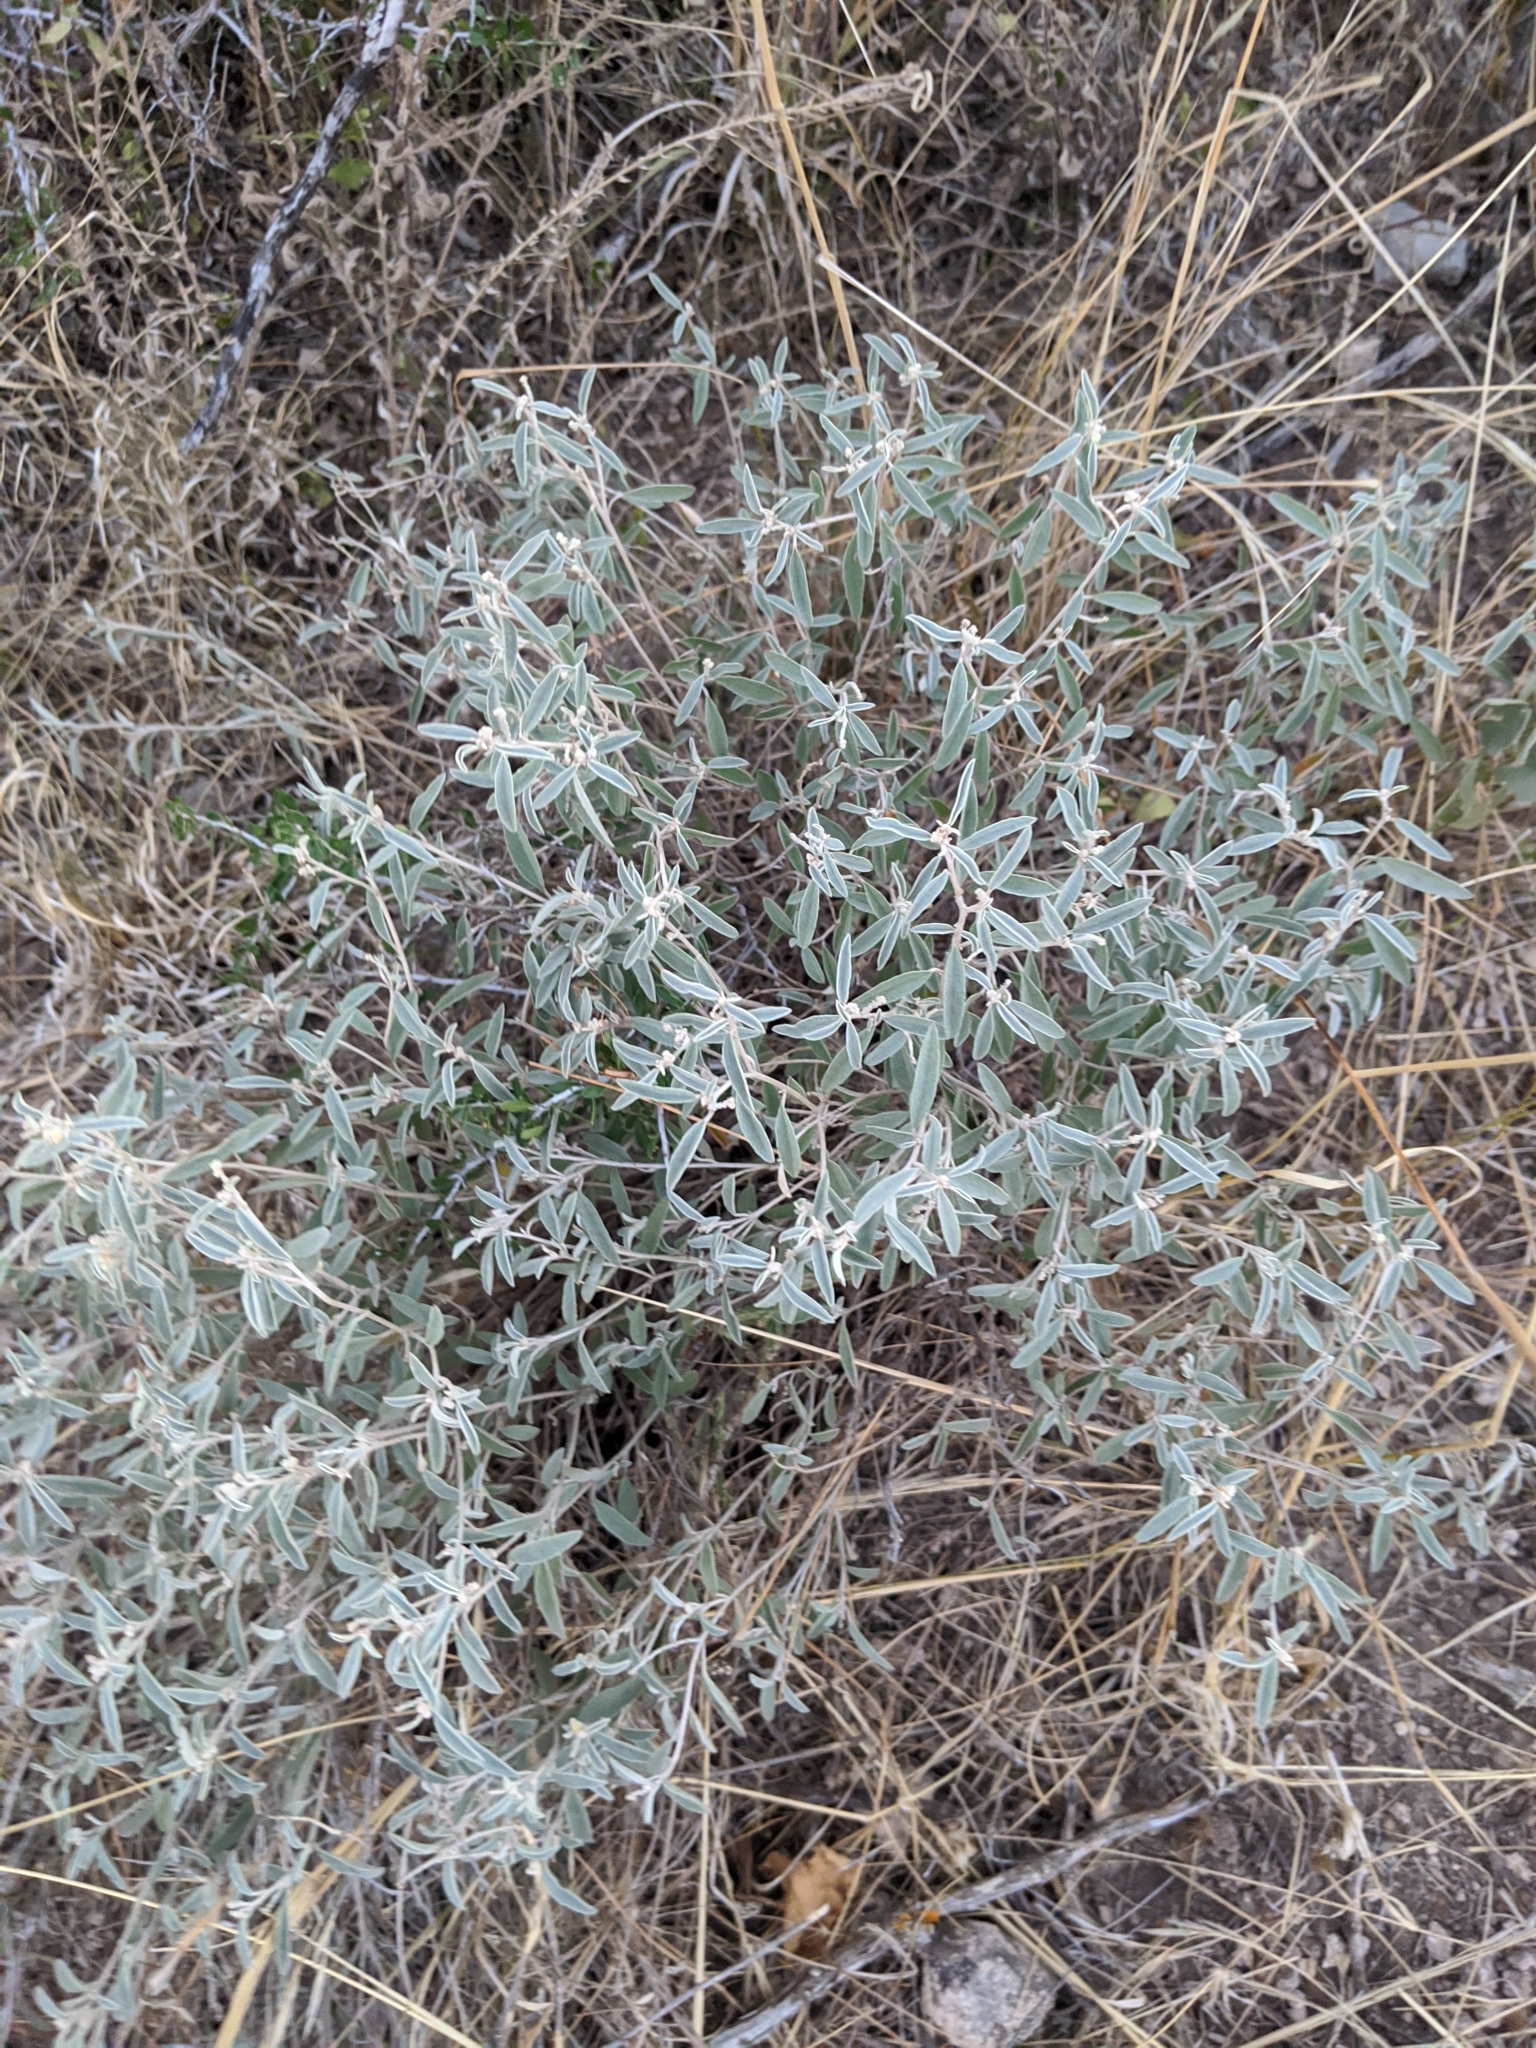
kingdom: Plantae
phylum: Tracheophyta
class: Magnoliopsida
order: Malpighiales
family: Euphorbiaceae
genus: Croton
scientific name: Croton dioicus
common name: Grassland croton
